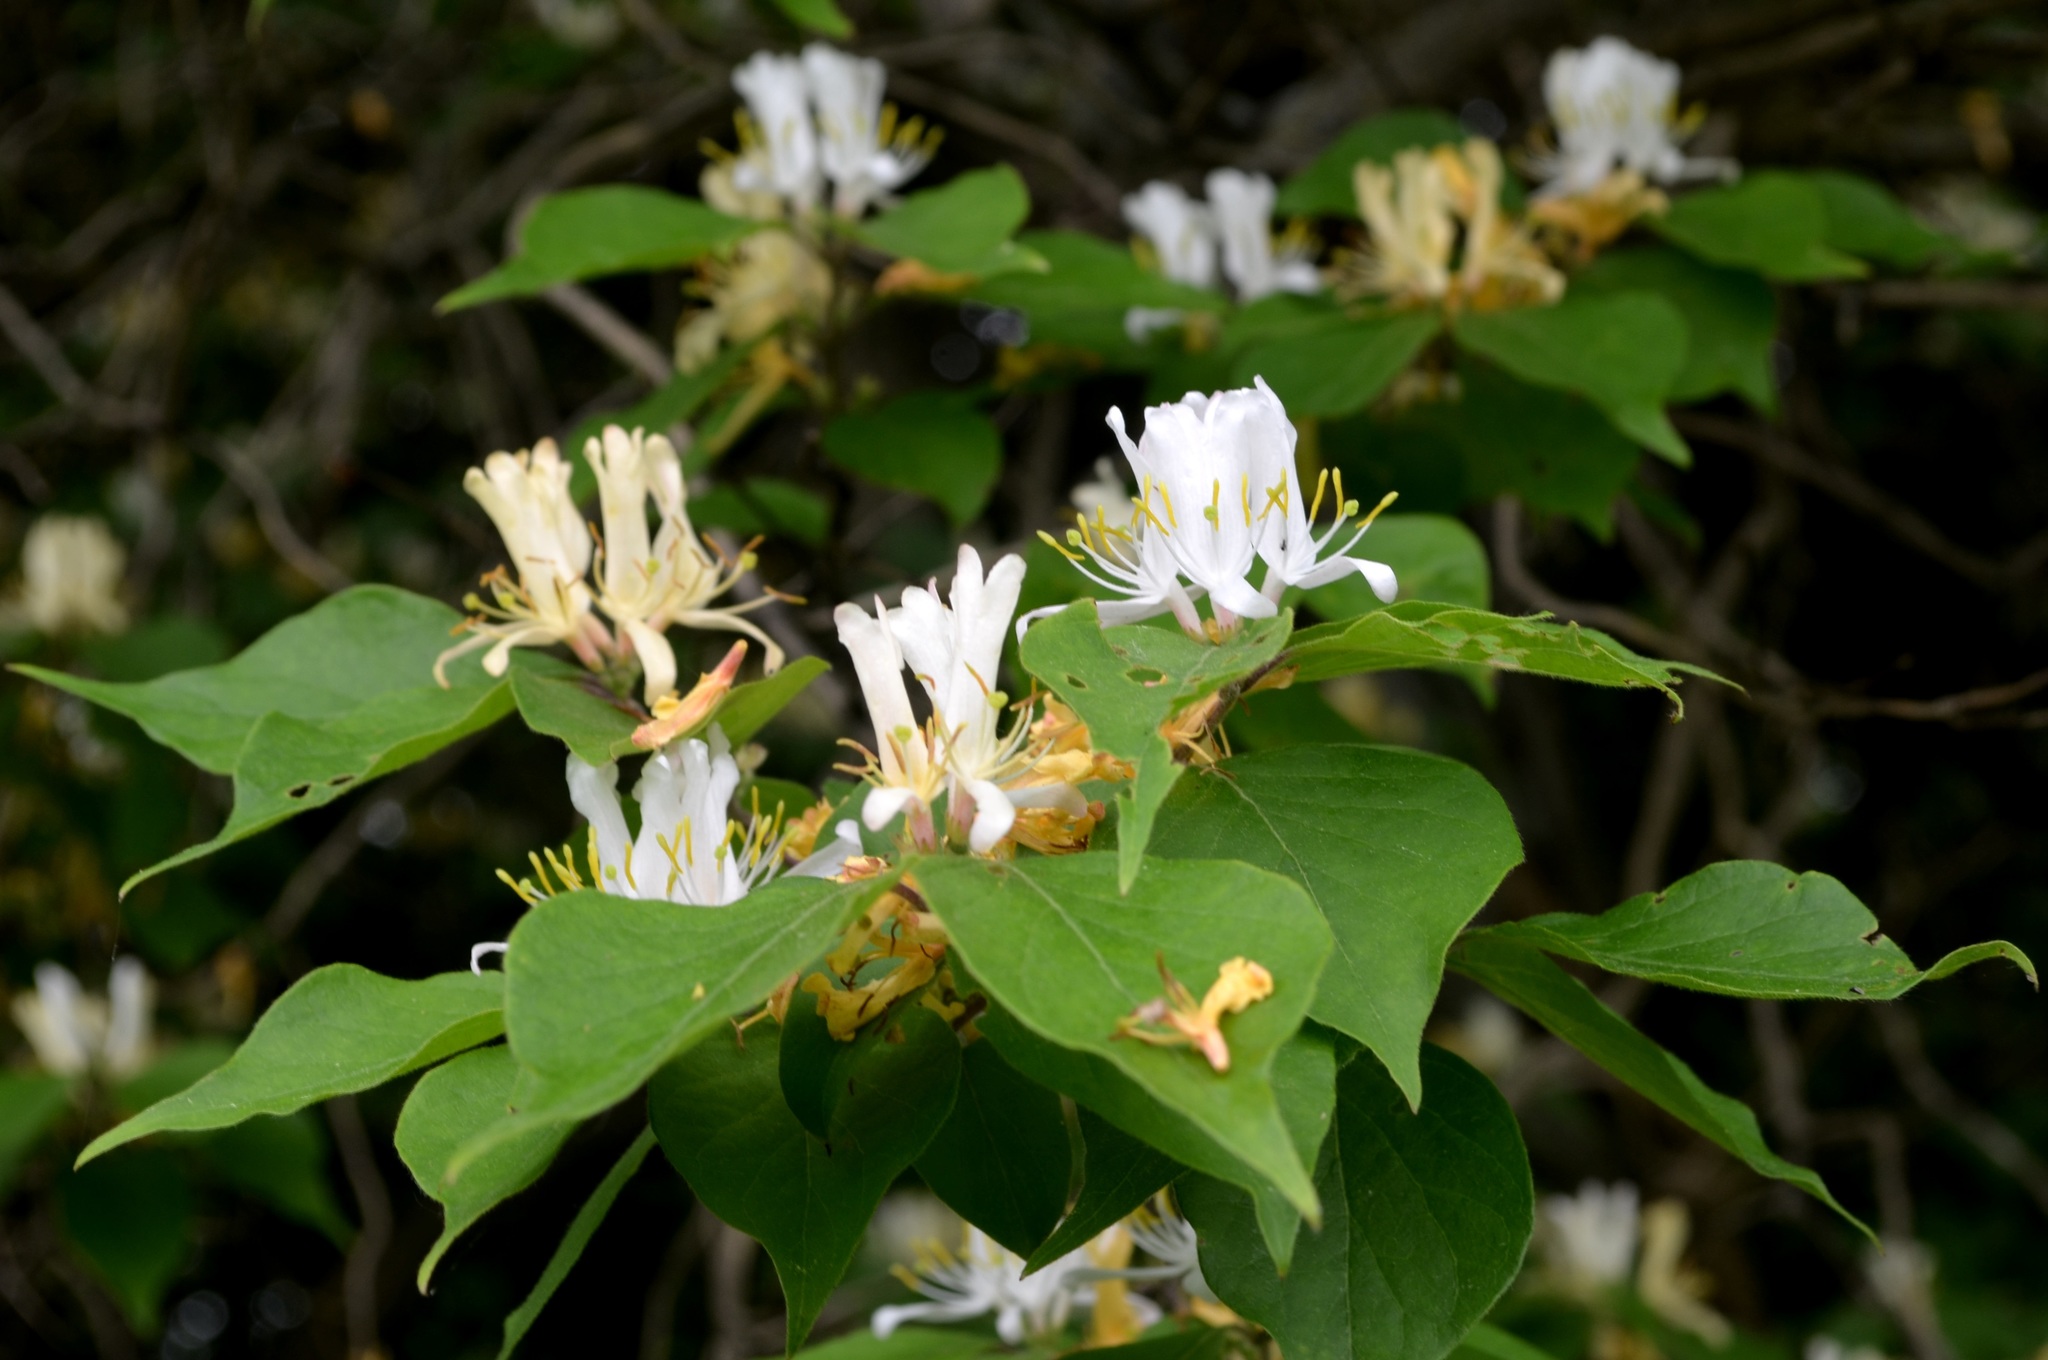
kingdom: Plantae
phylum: Tracheophyta
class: Magnoliopsida
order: Dipsacales
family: Caprifoliaceae
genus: Lonicera
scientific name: Lonicera maackii
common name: Amur honeysuckle
